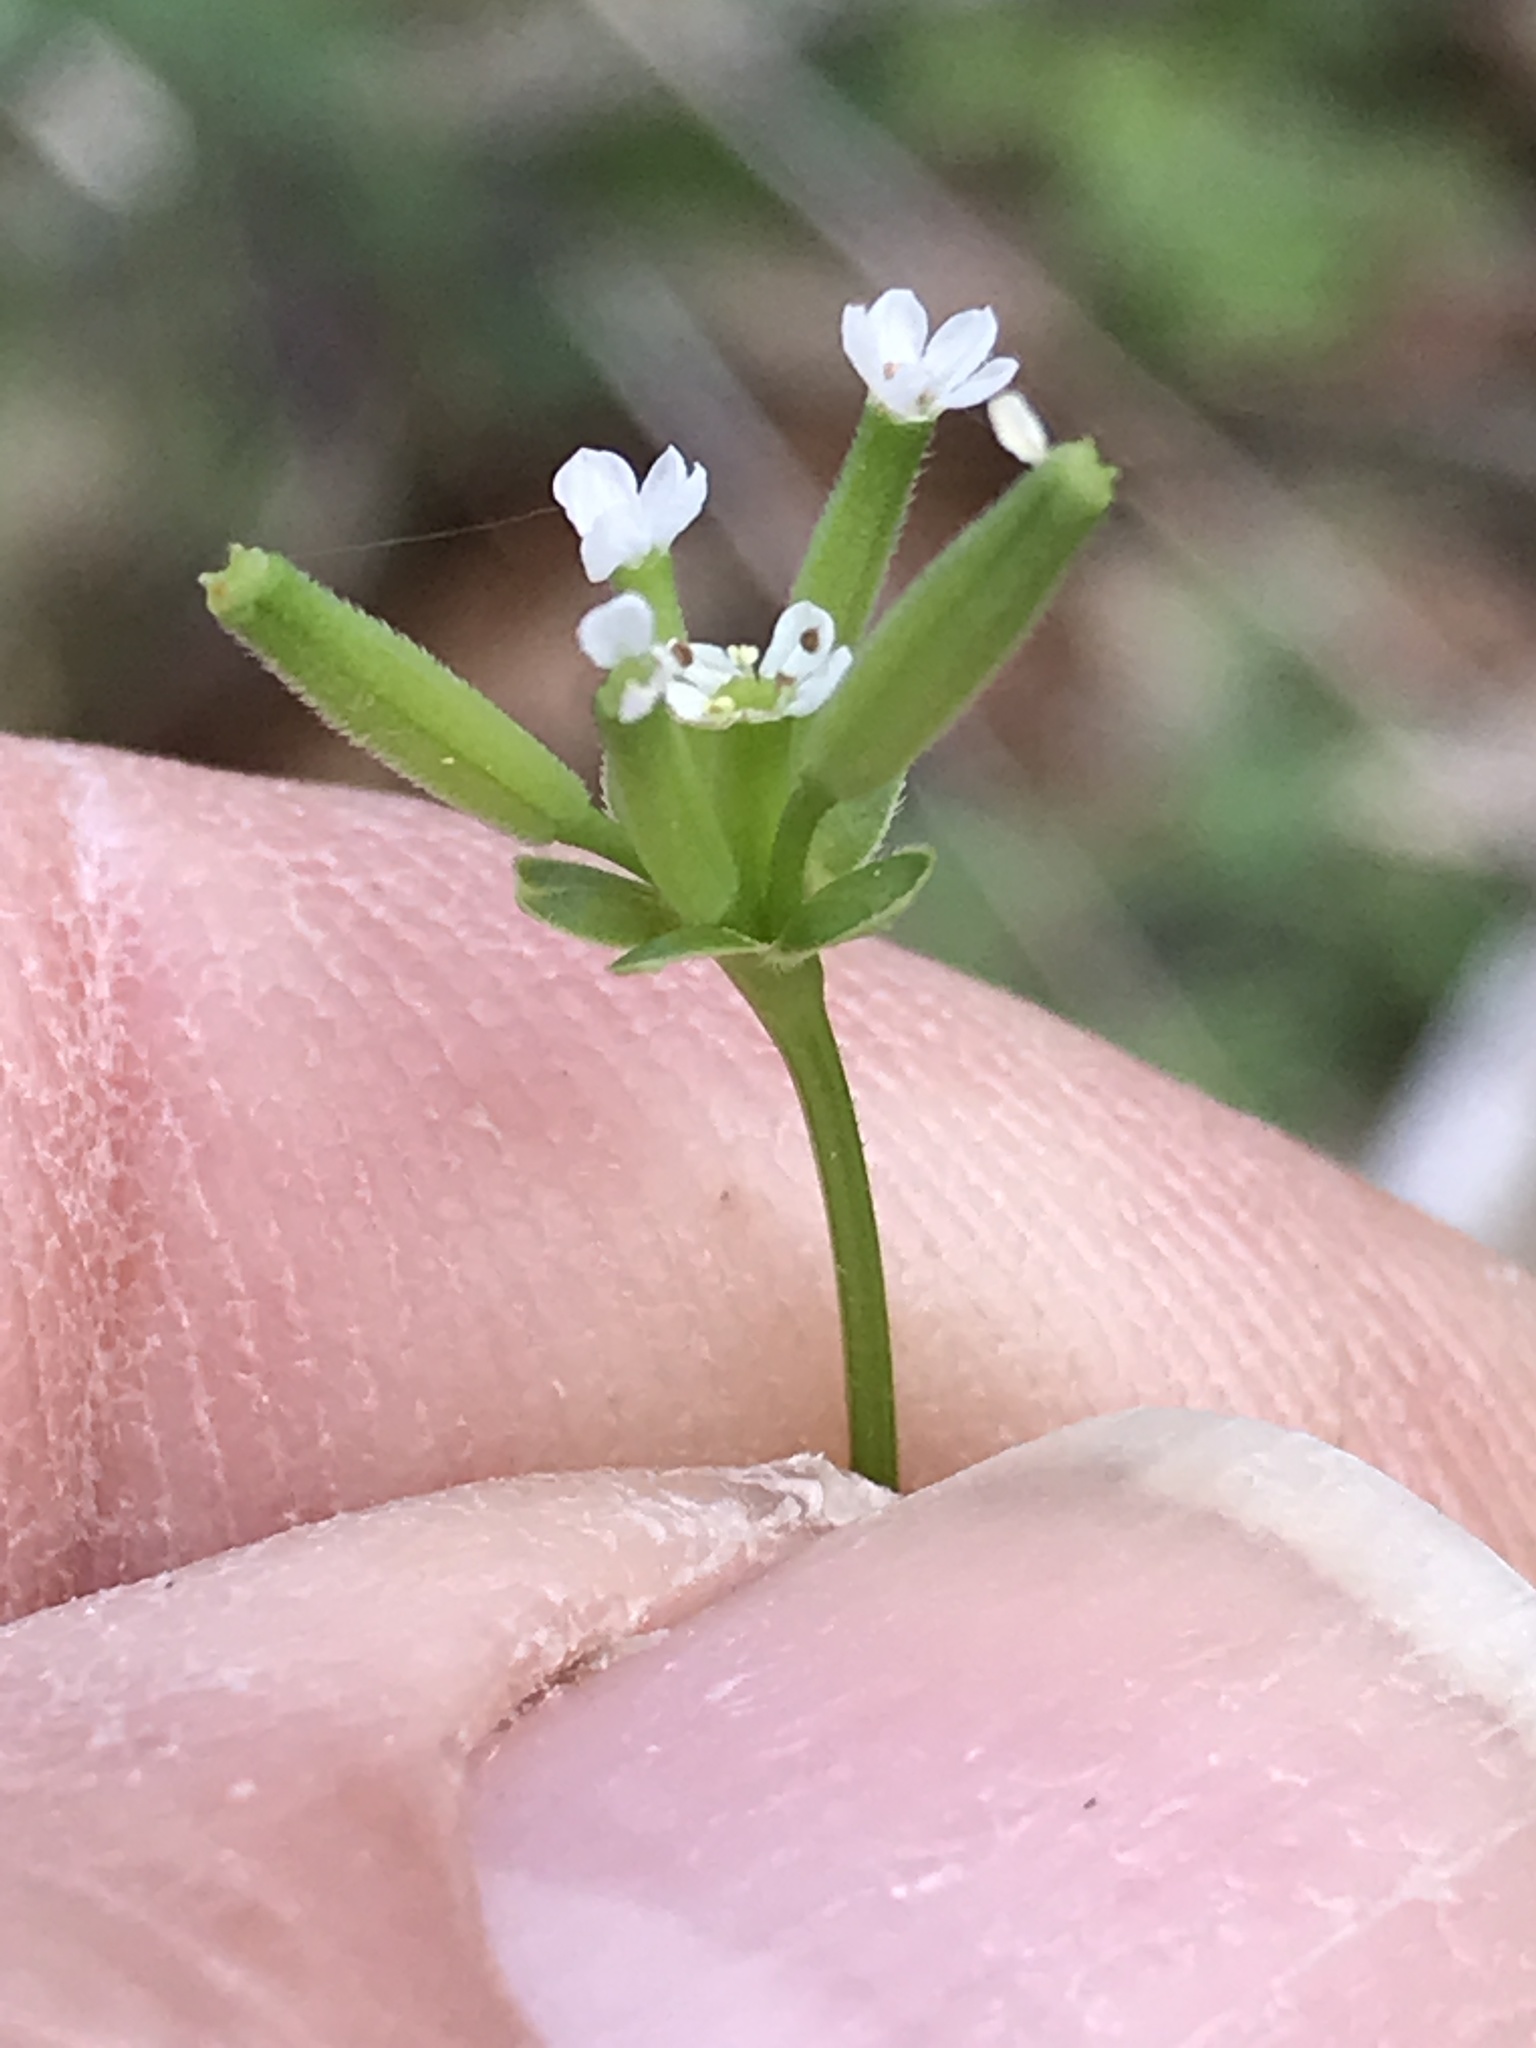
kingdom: Plantae
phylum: Tracheophyta
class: Magnoliopsida
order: Apiales
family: Apiaceae
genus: Chaerophyllum
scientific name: Chaerophyllum tainturieri
